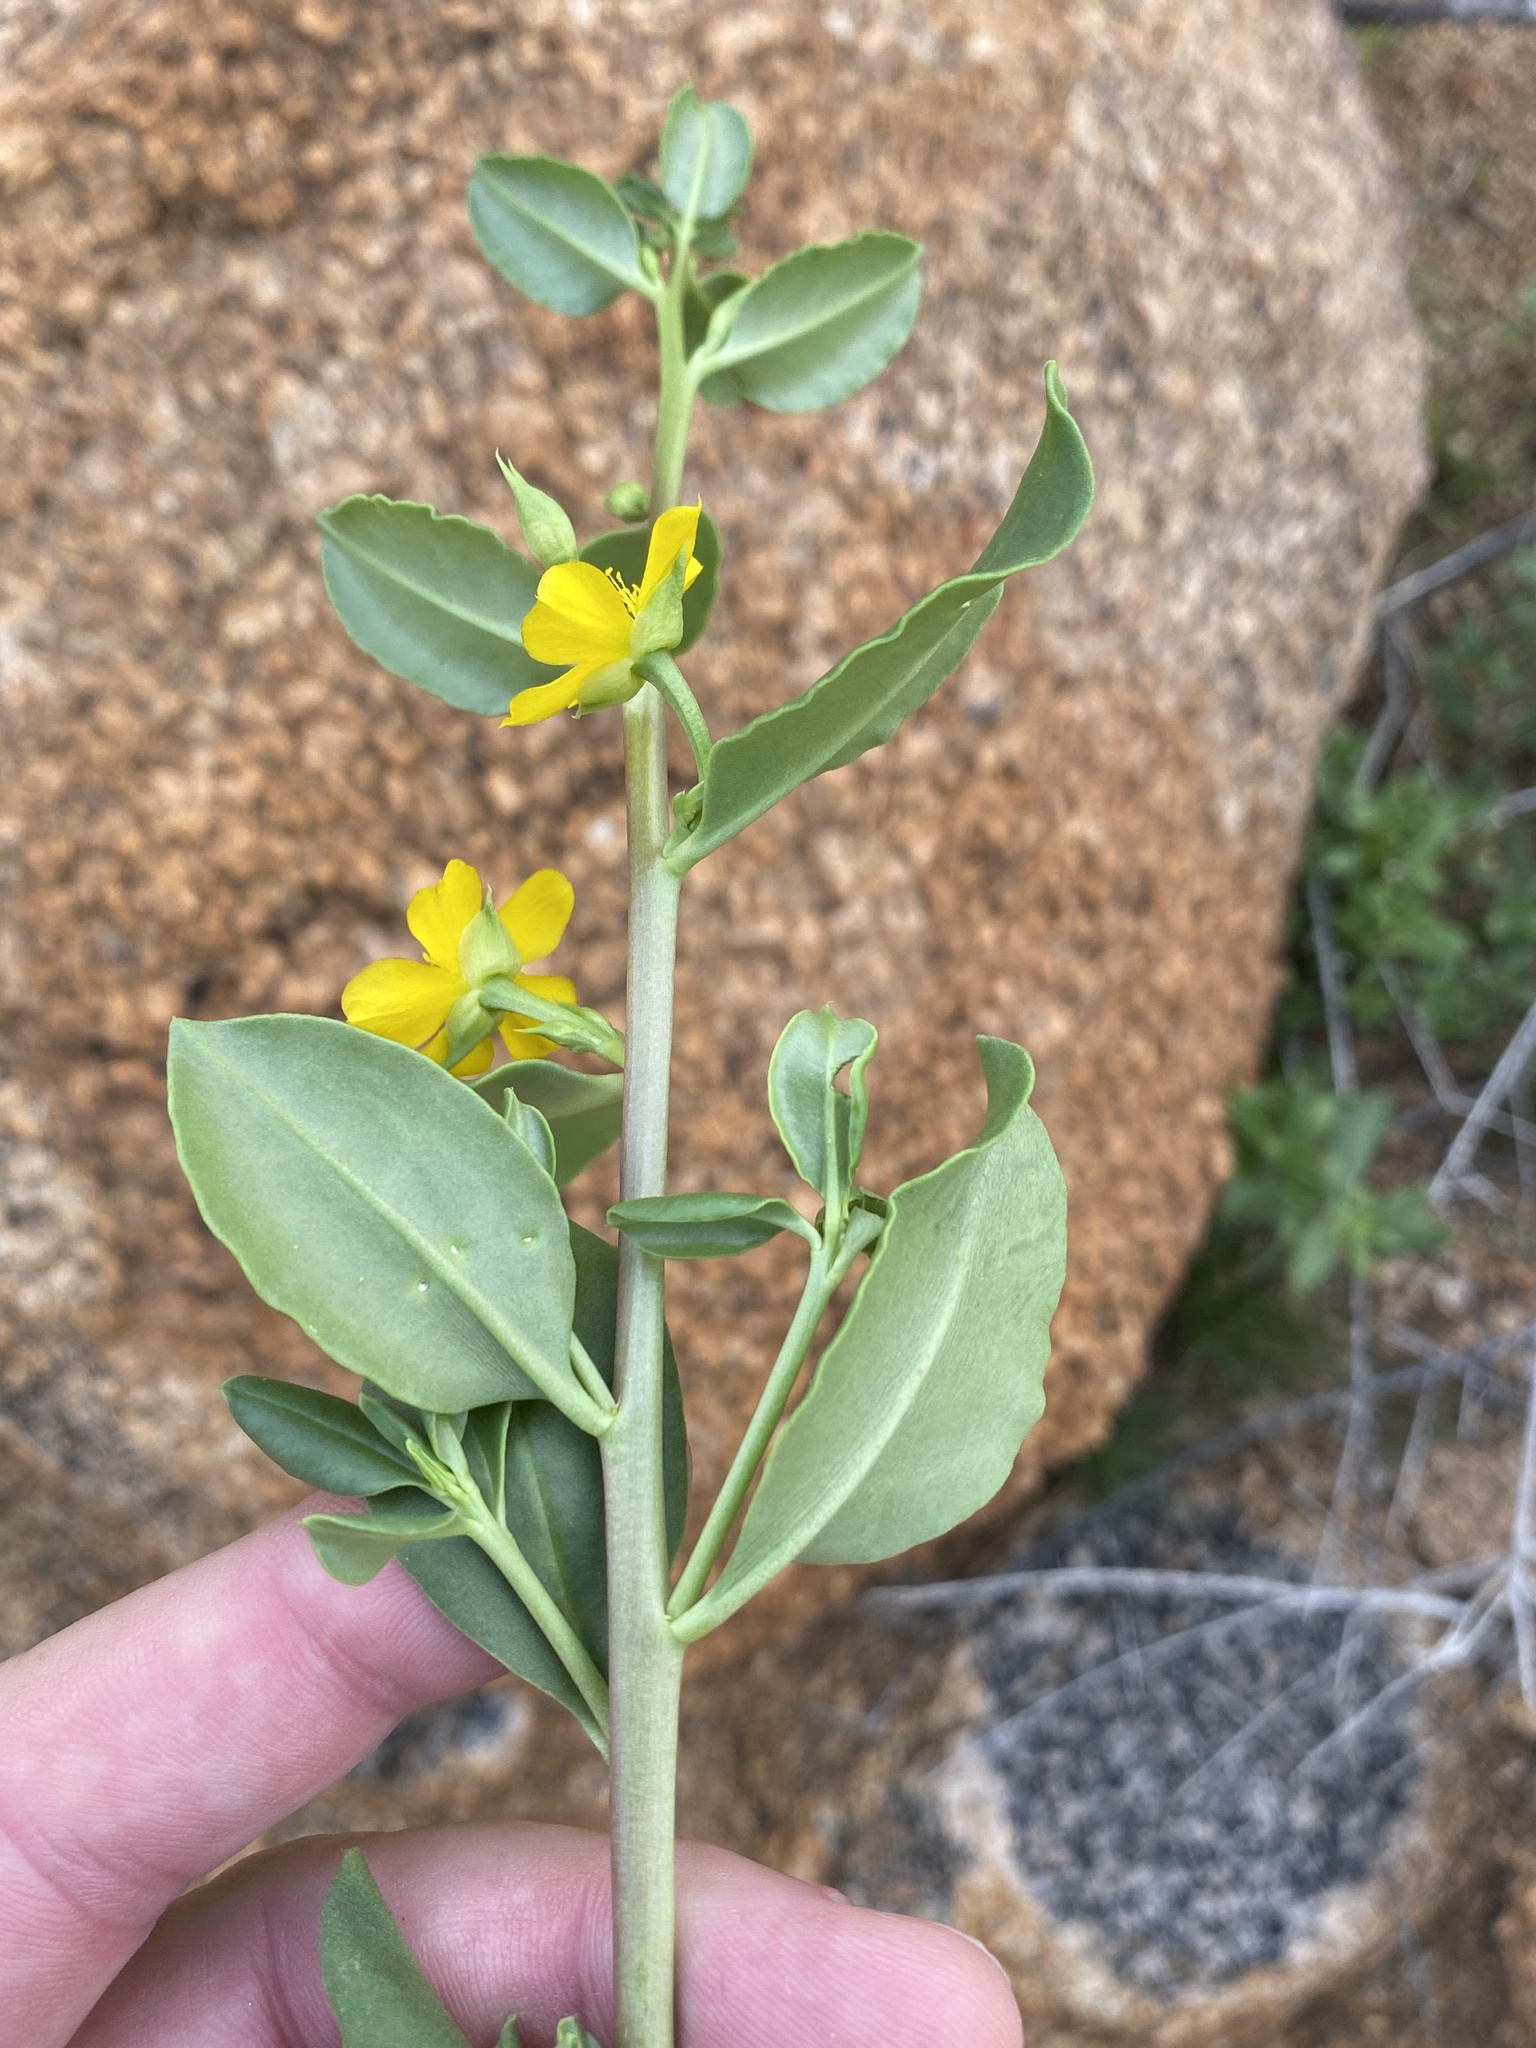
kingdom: Plantae
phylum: Tracheophyta
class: Magnoliopsida
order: Caryophyllales
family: Talinaceae
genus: Talinum
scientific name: Talinum caffrum
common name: Flameflower
